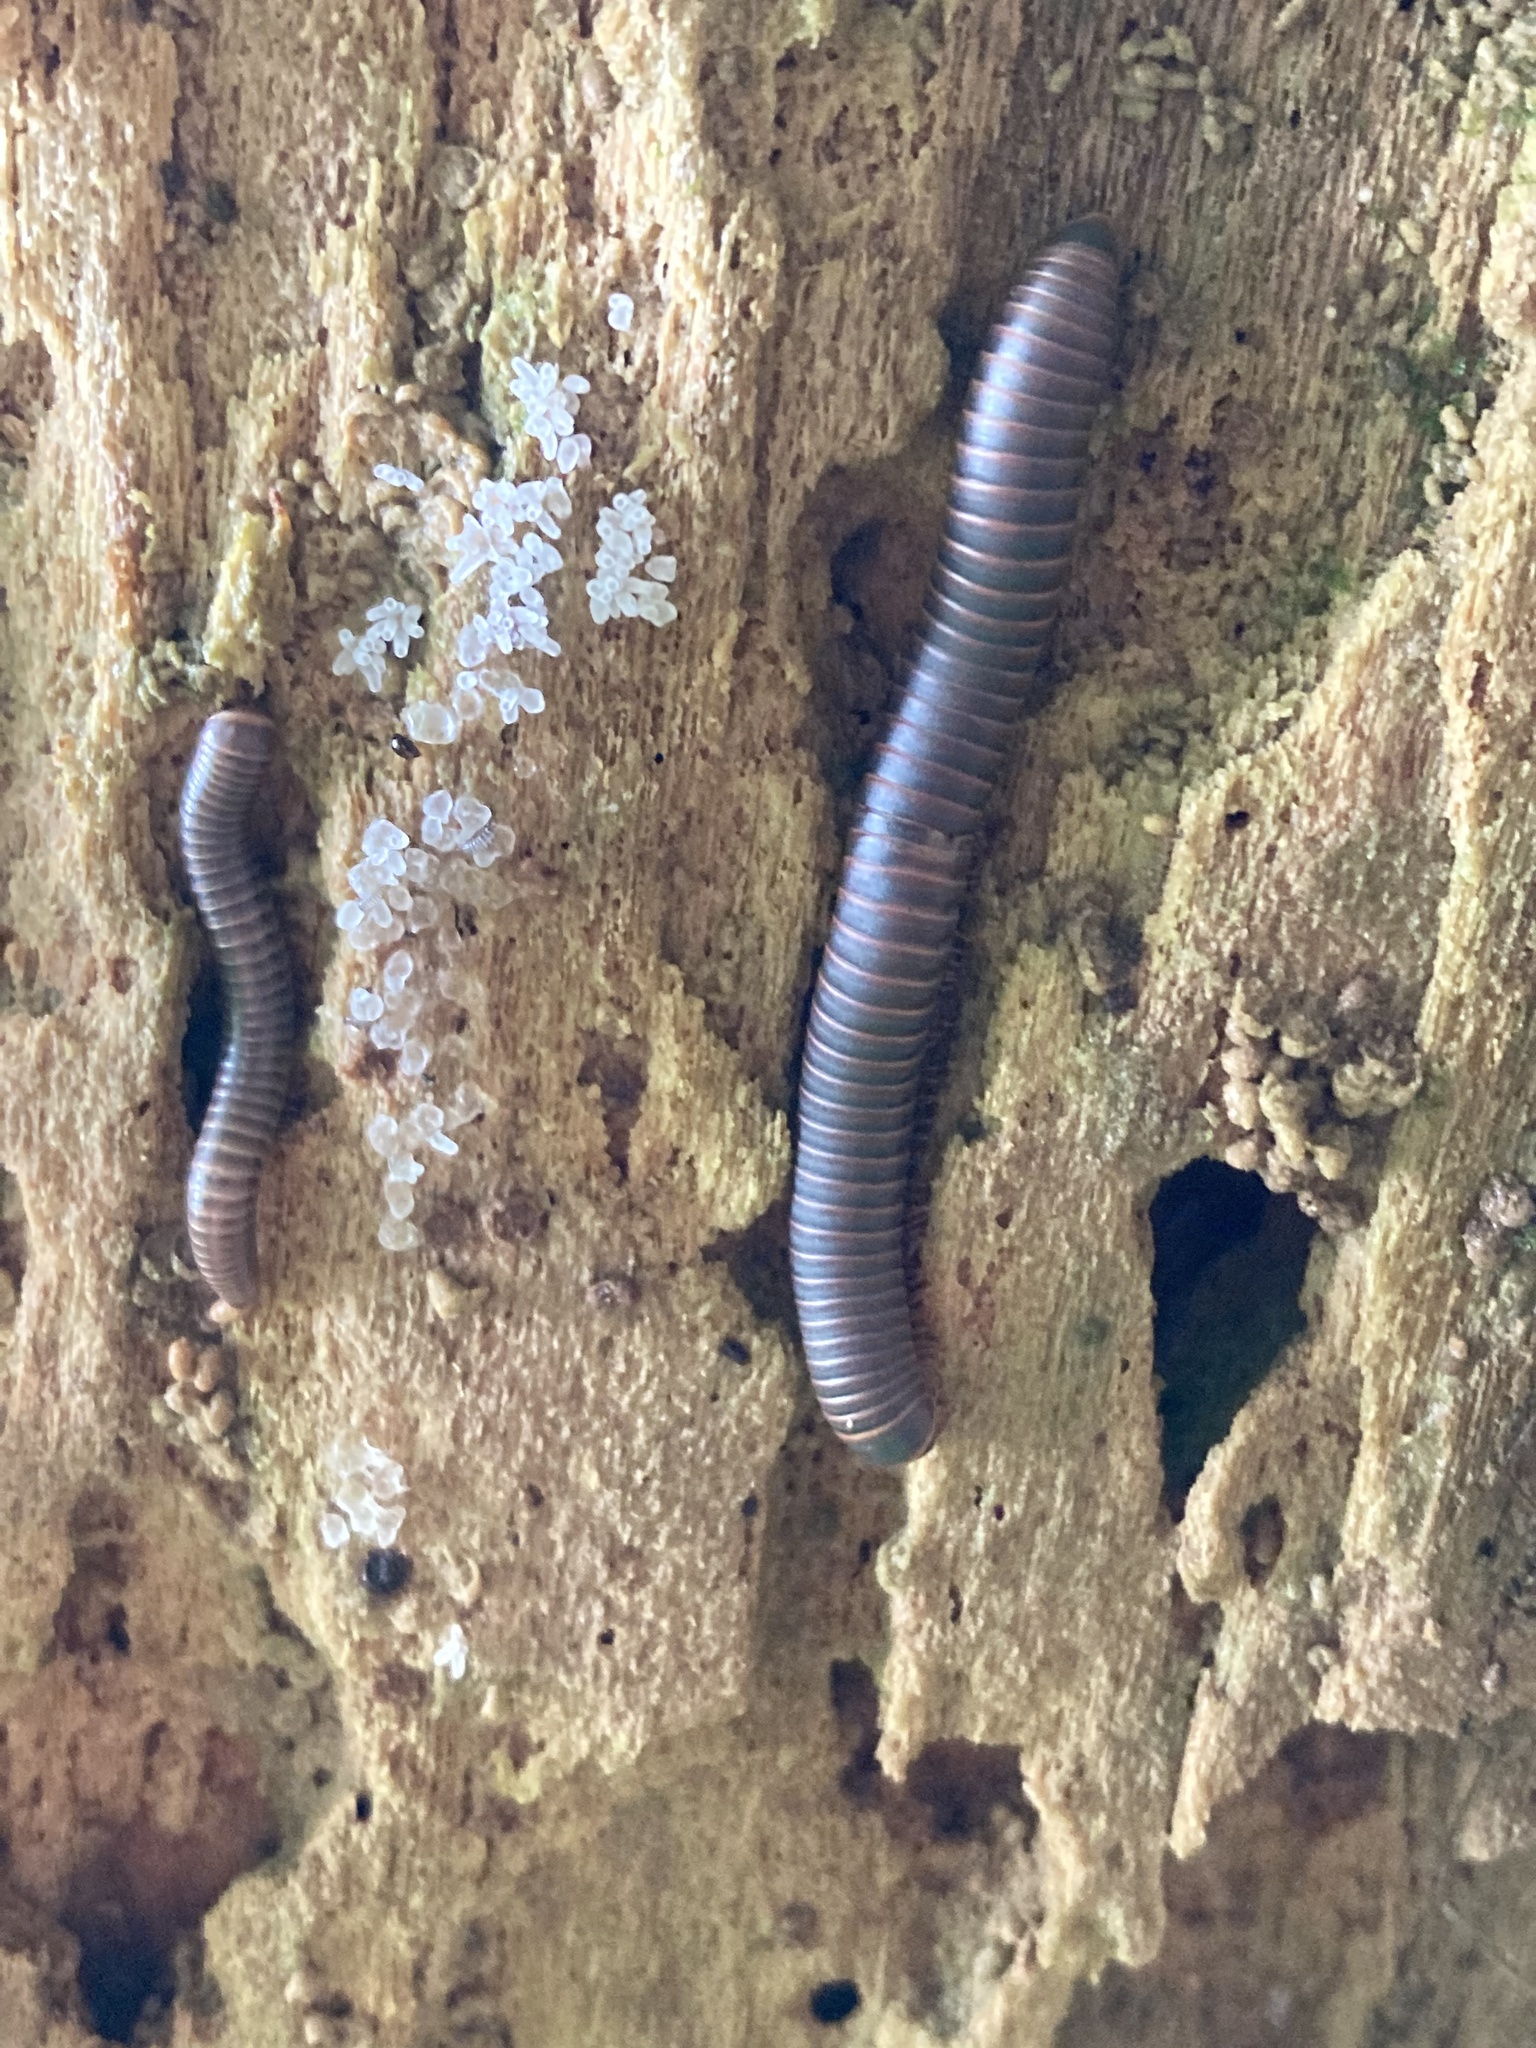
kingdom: Animalia
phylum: Arthropoda
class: Diplopoda
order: Spirobolida
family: Spirobolidae
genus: Narceus
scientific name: Narceus
